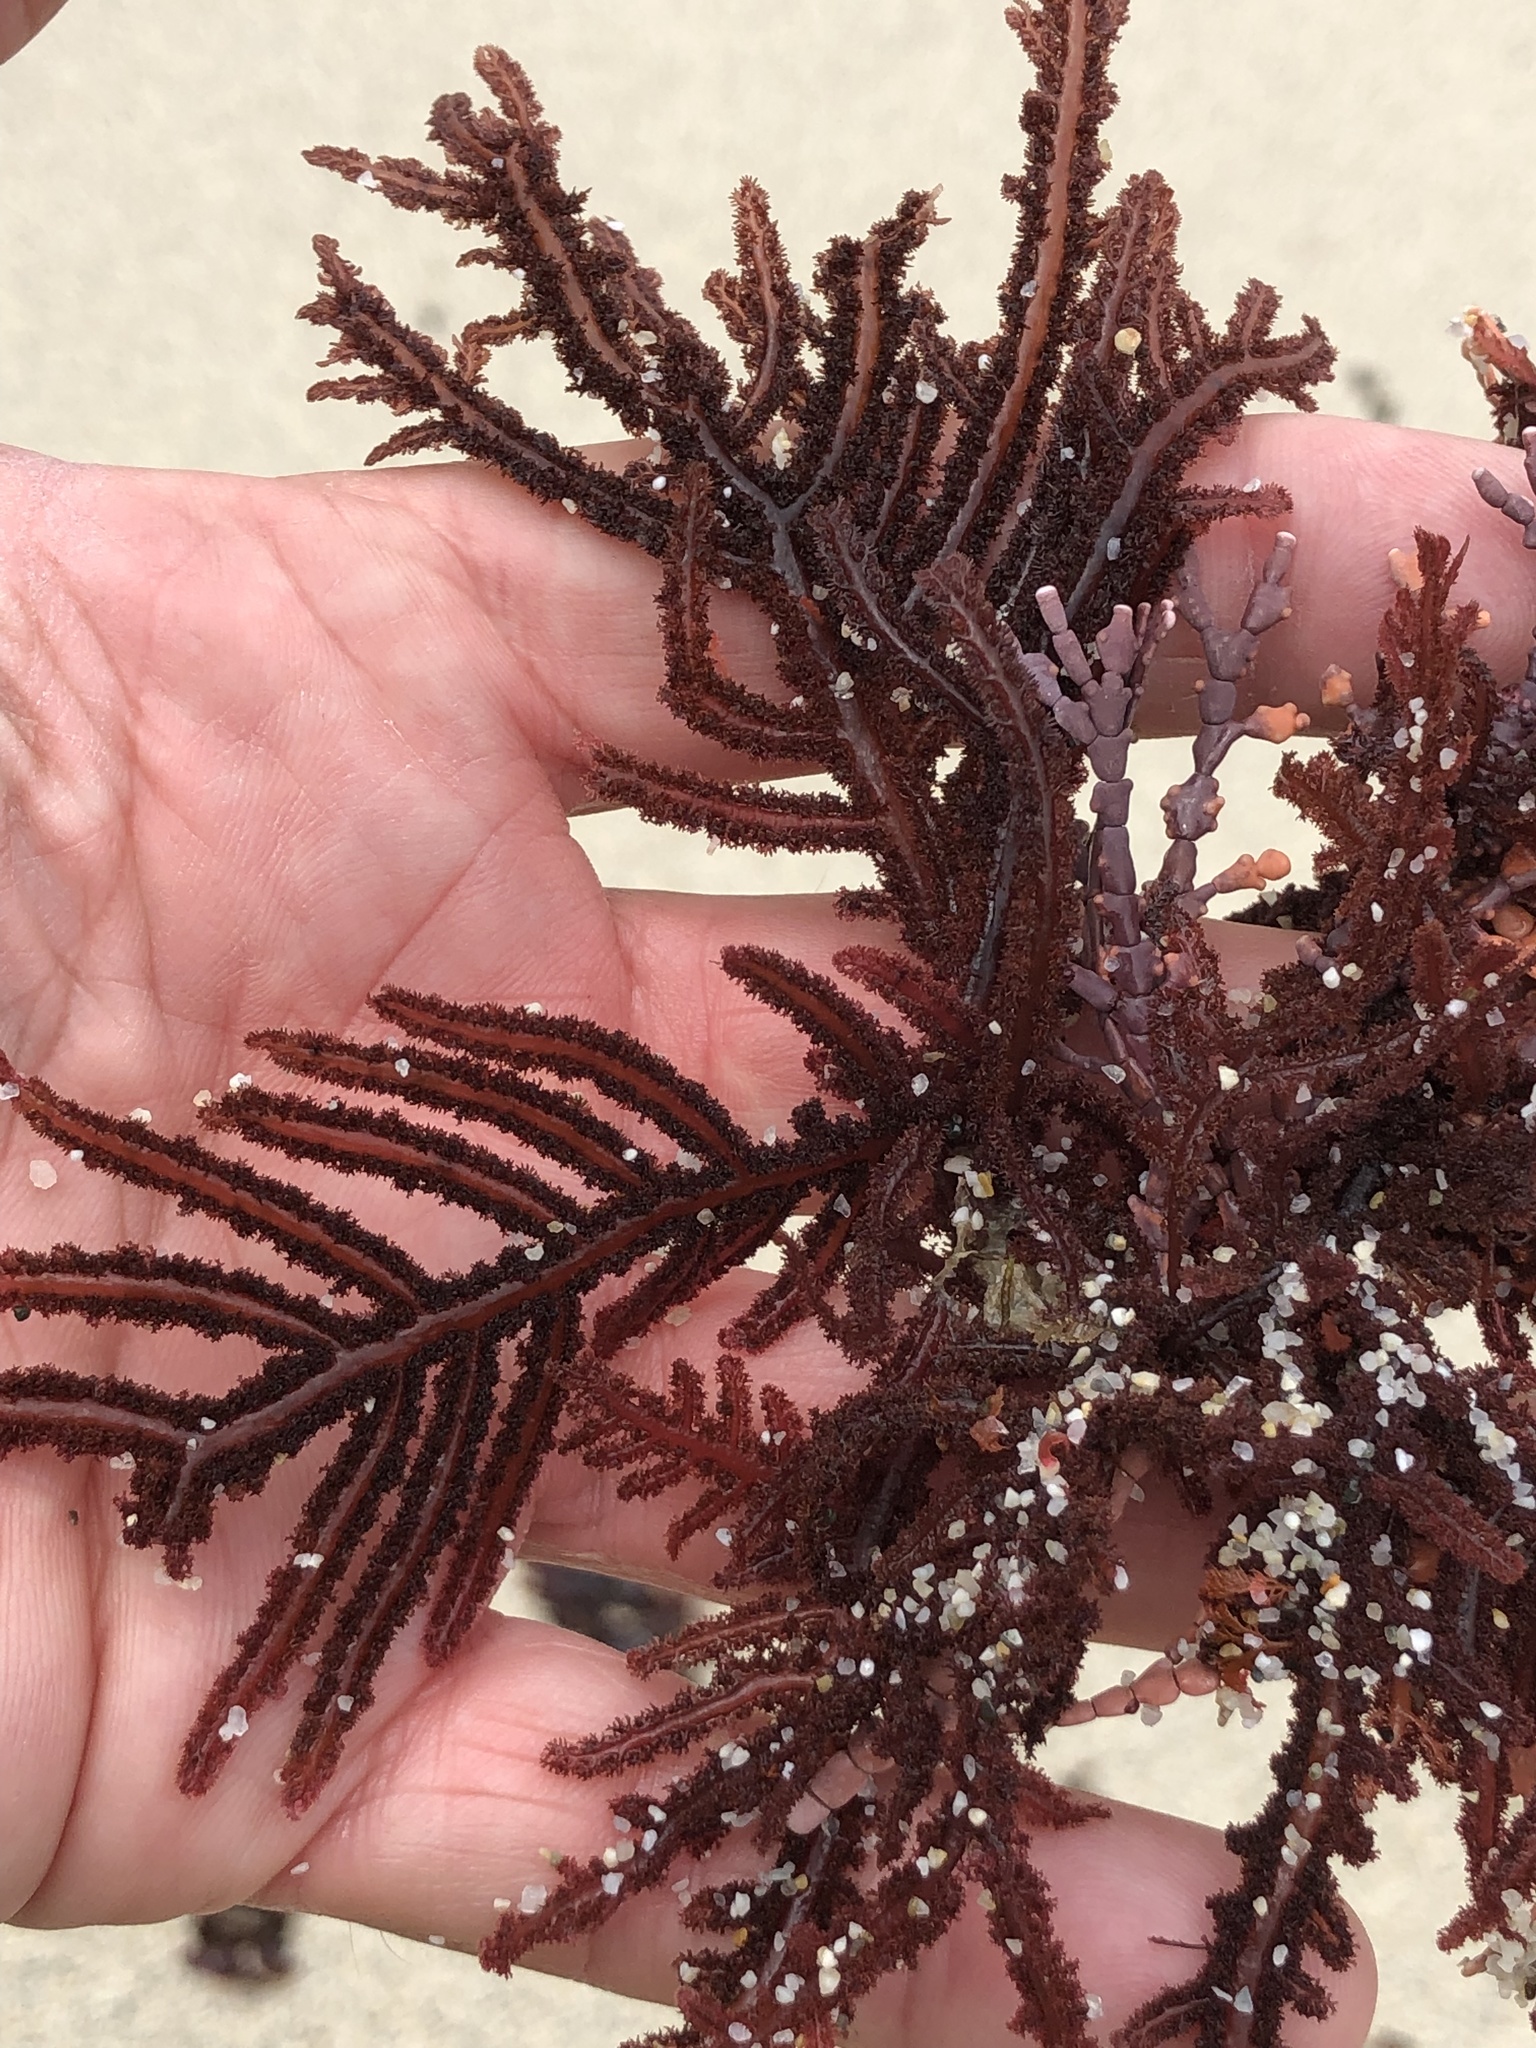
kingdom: Plantae
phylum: Rhodophyta
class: Florideophyceae
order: Ceramiales
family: Wrangeliaceae
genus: Neoptilota
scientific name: Neoptilota densa
